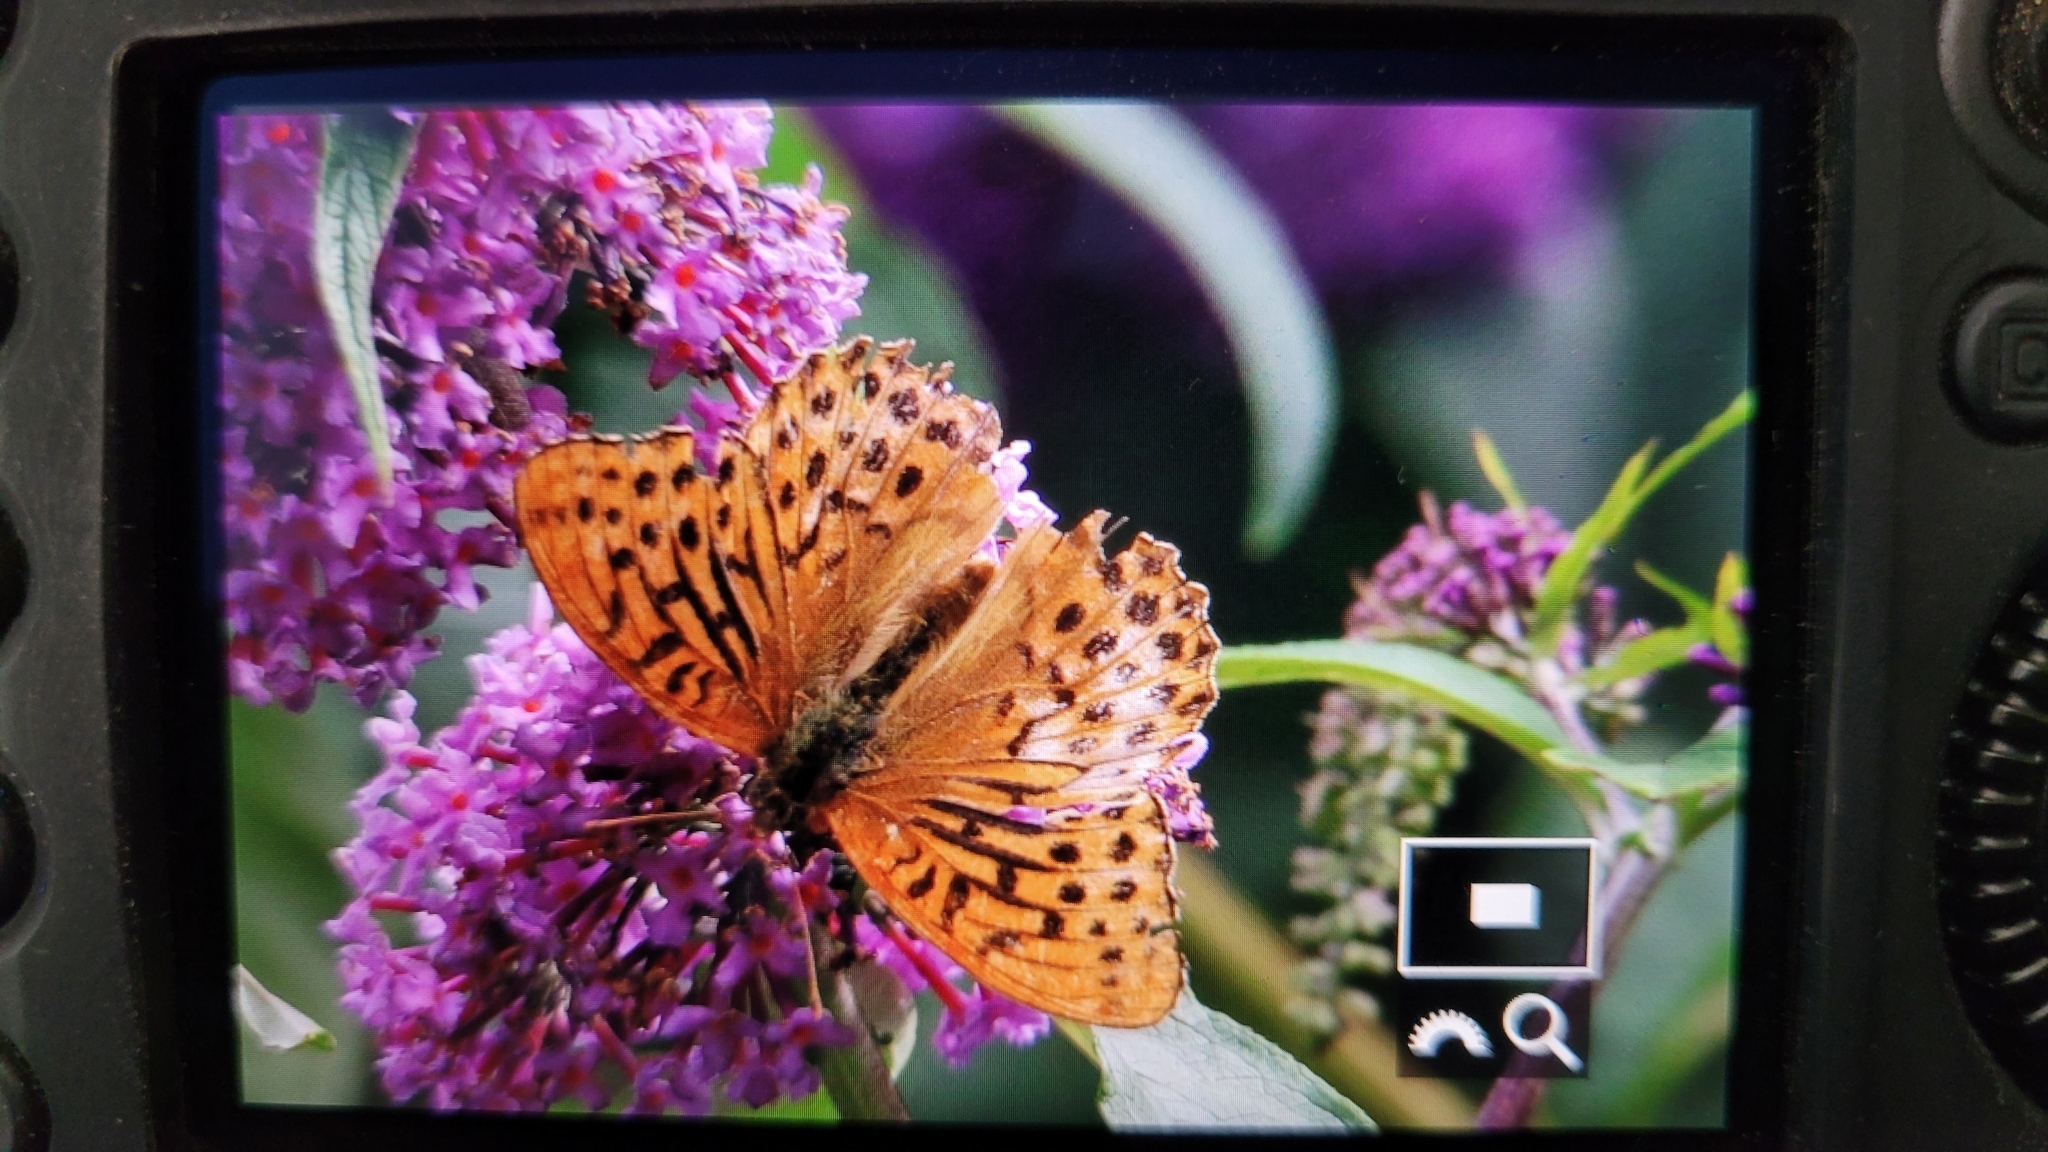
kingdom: Animalia
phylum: Arthropoda
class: Insecta
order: Lepidoptera
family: Nymphalidae
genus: Argynnis
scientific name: Argynnis paphia
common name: Silver-washed fritillary
